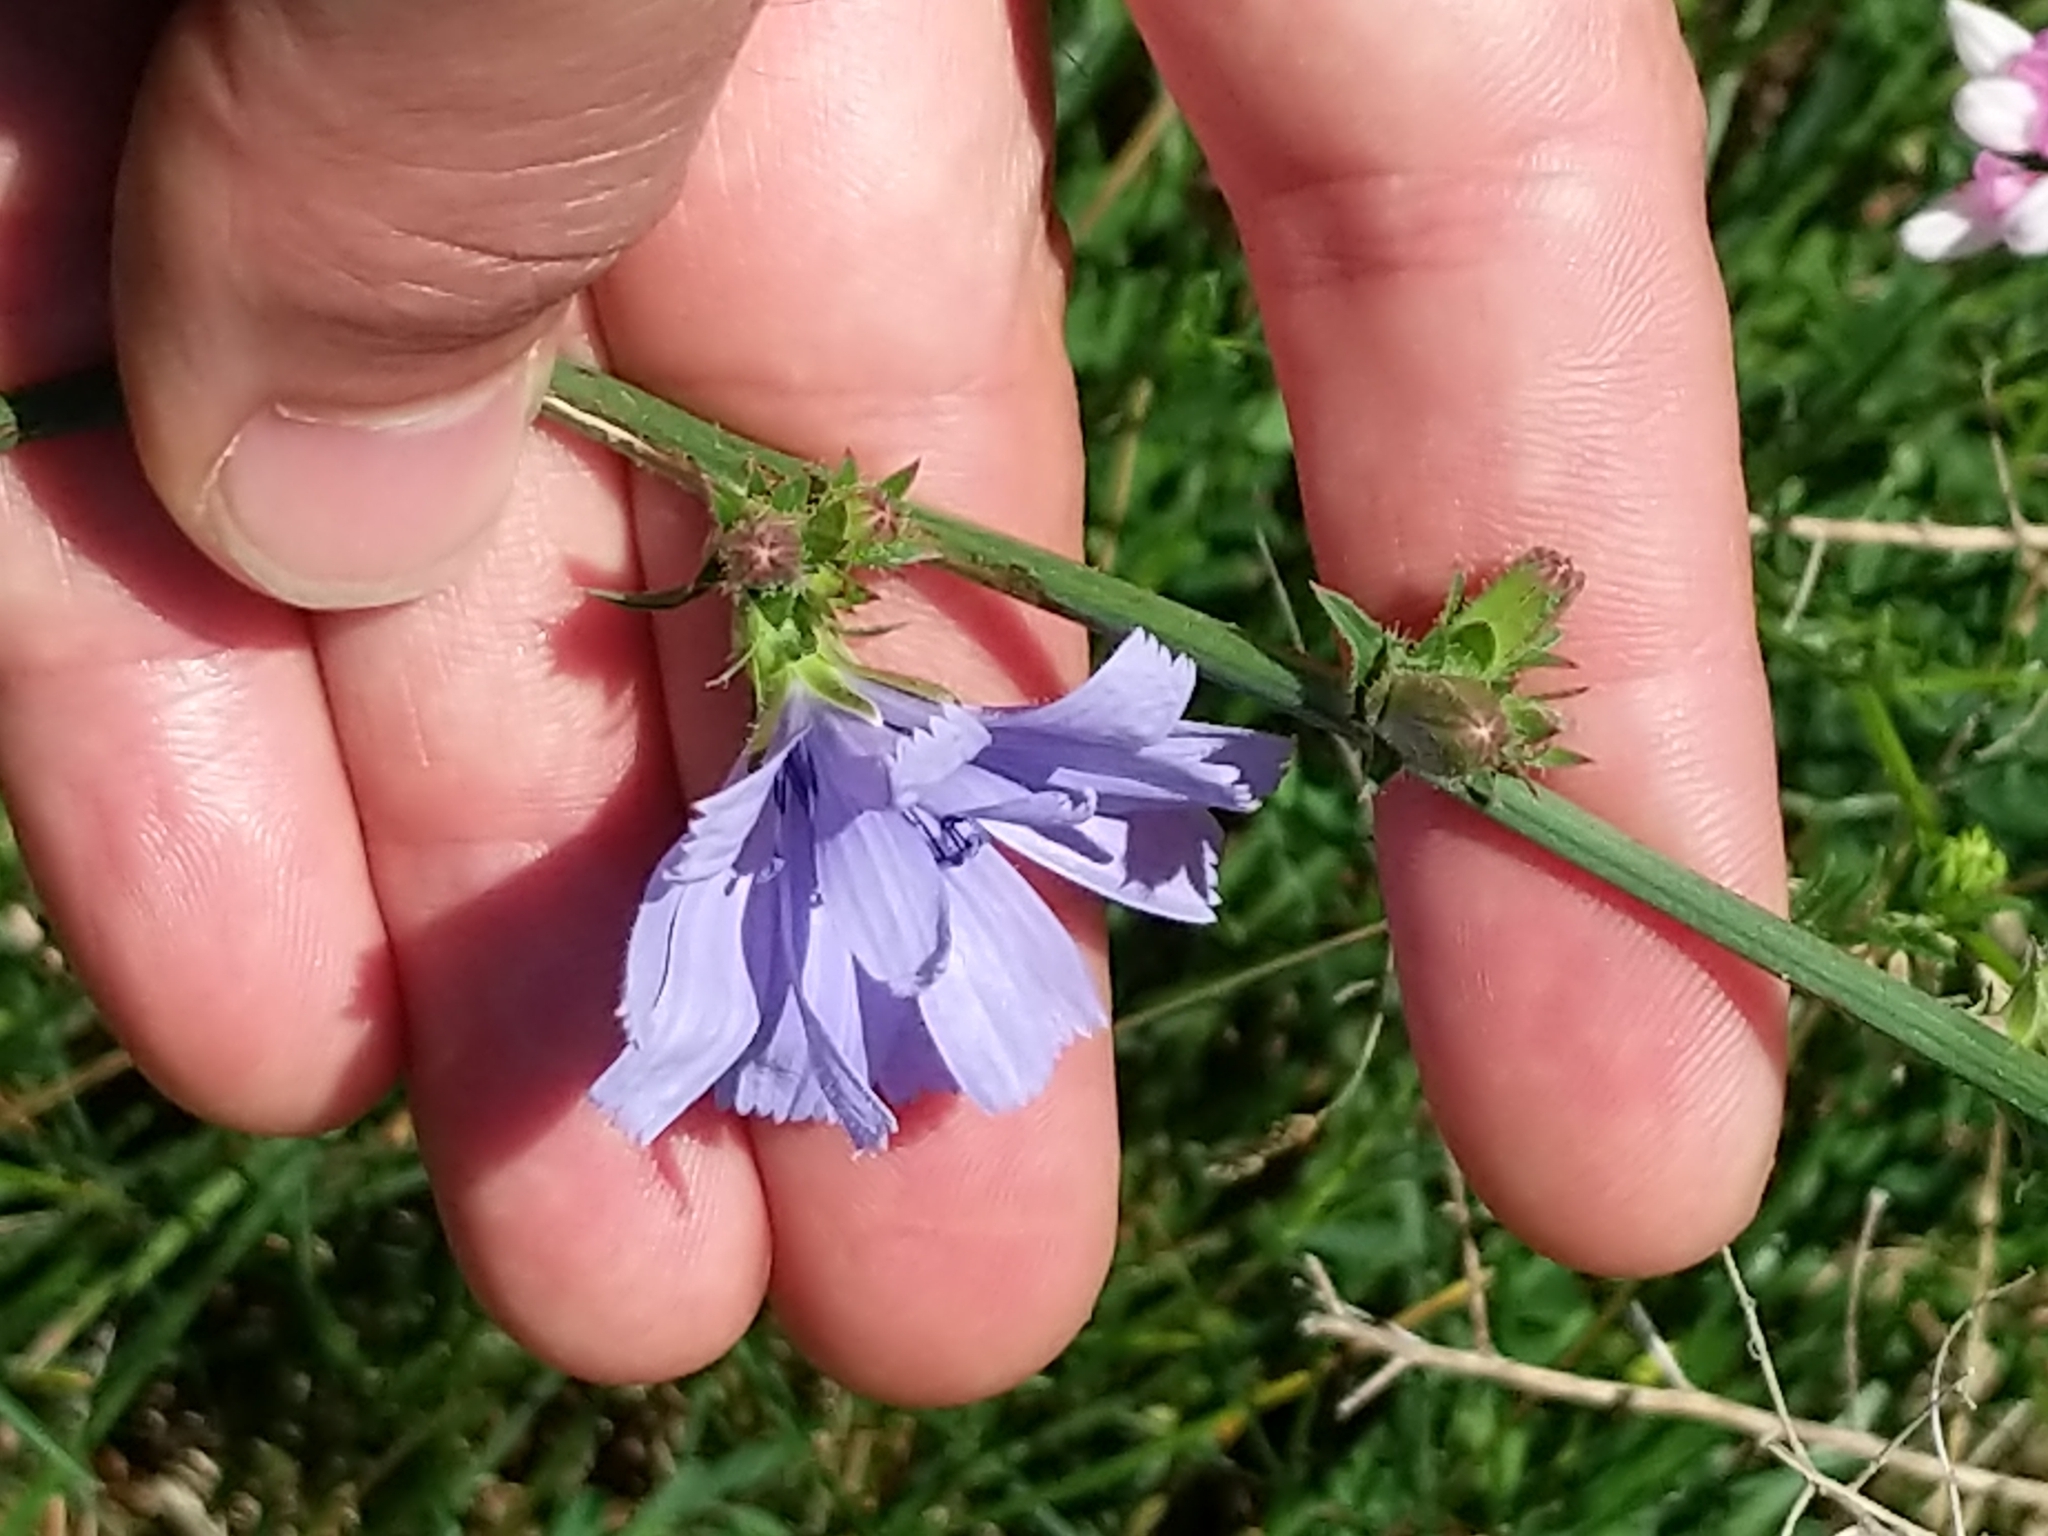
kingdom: Plantae
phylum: Tracheophyta
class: Magnoliopsida
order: Asterales
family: Asteraceae
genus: Cichorium
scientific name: Cichorium intybus
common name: Chicory
